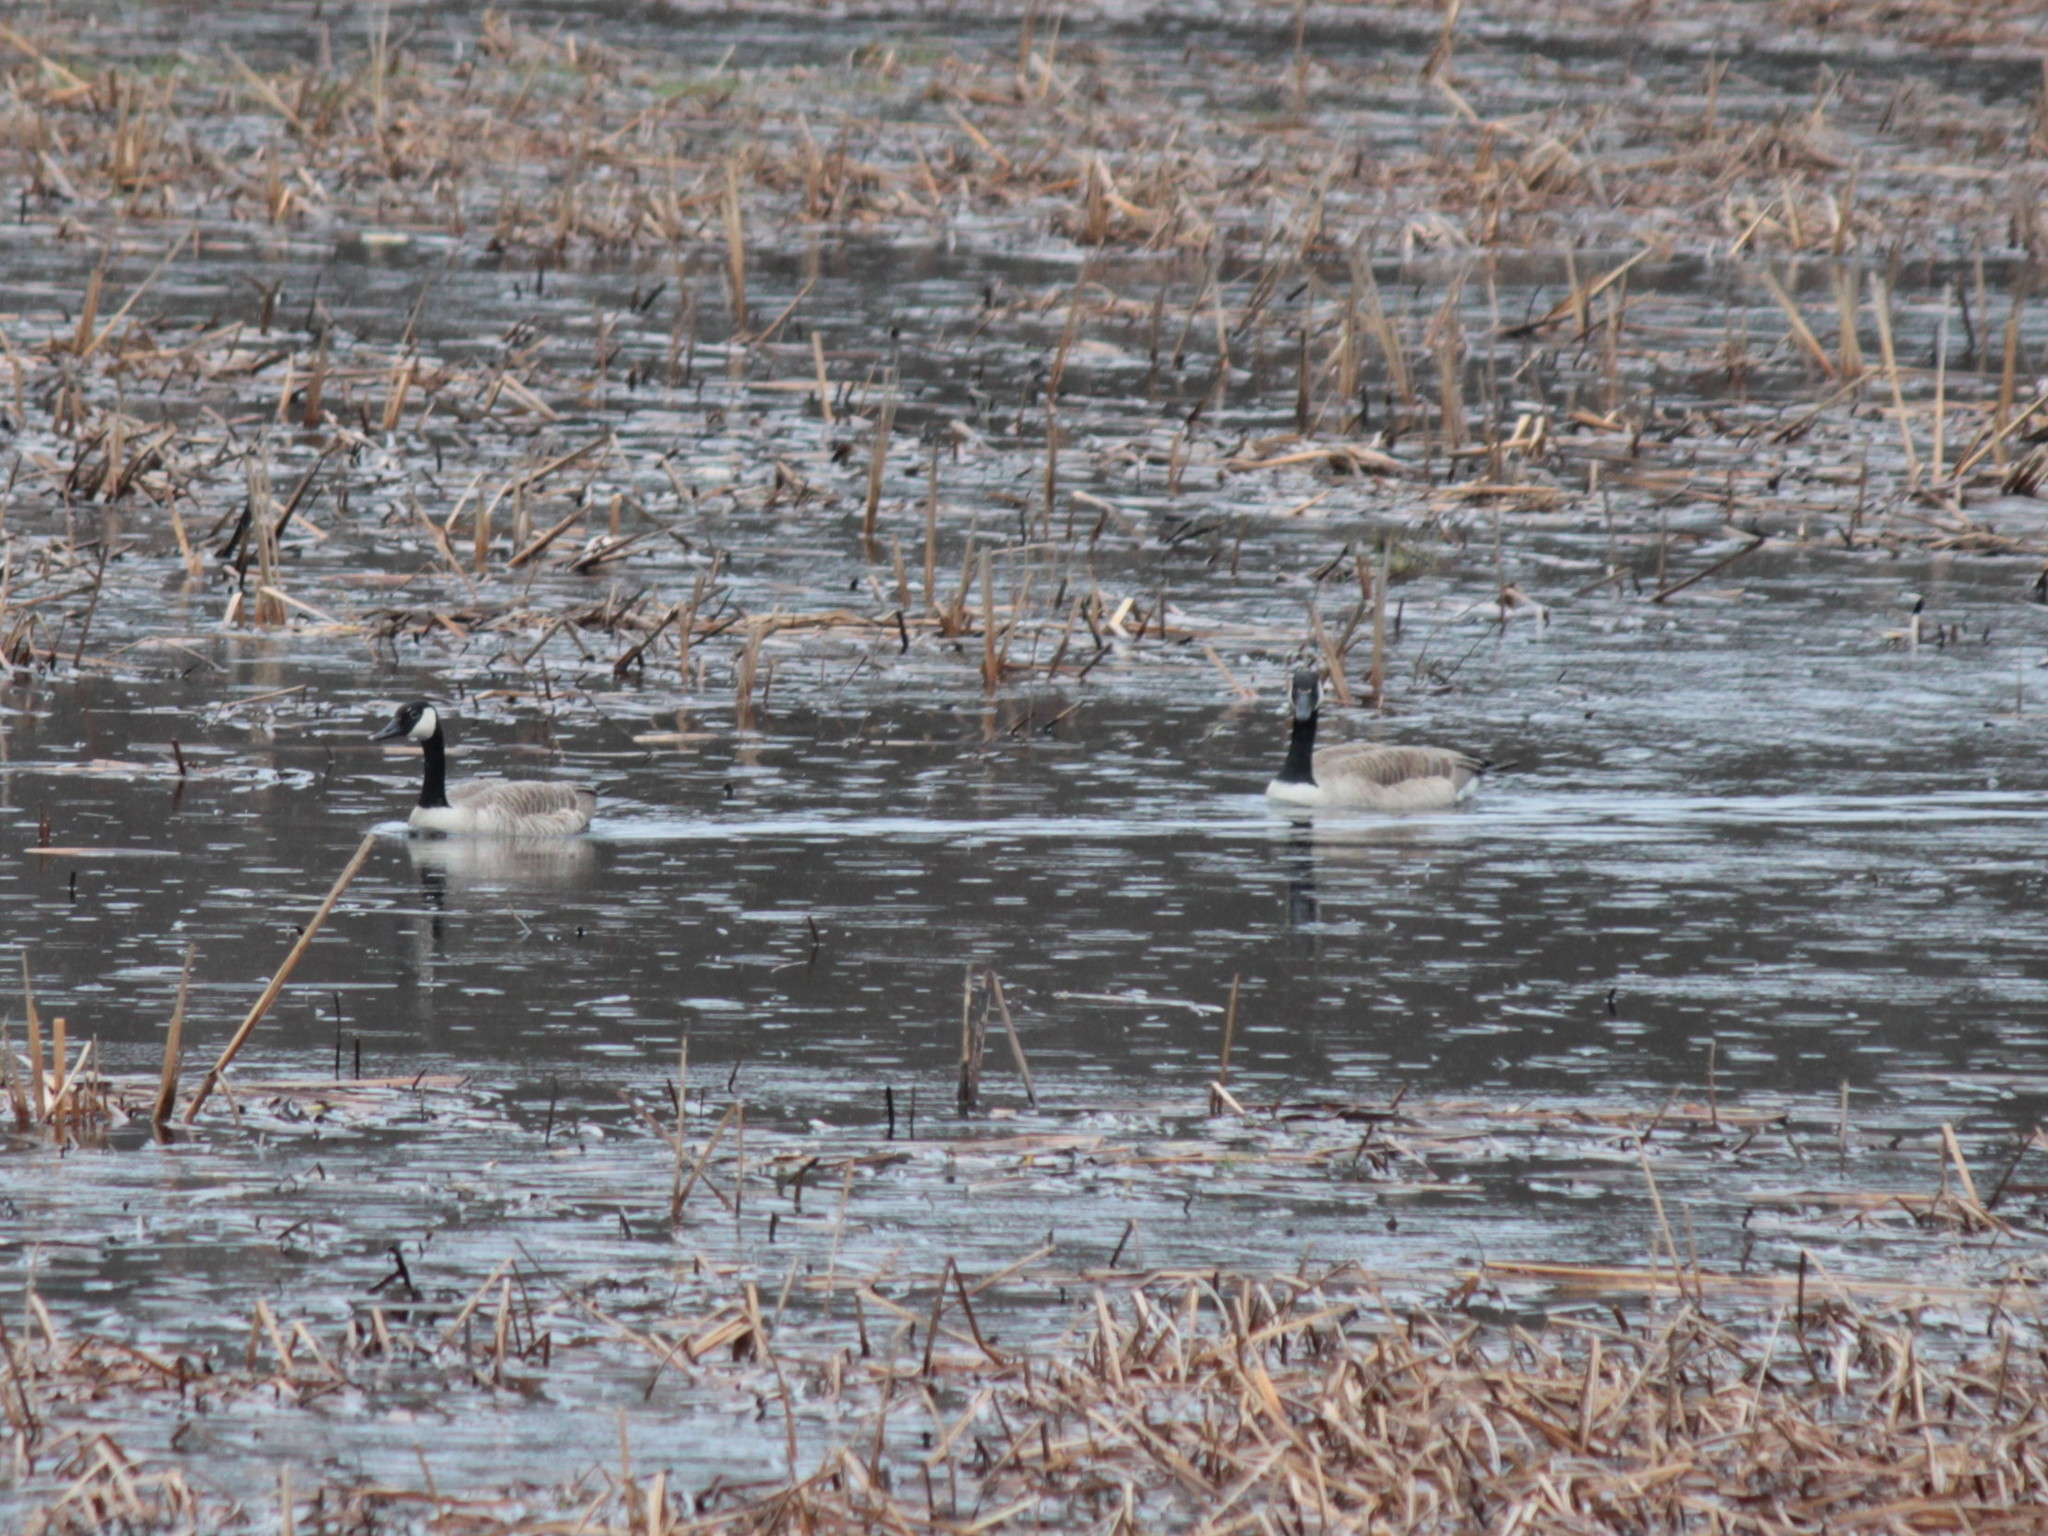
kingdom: Animalia
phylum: Chordata
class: Aves
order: Anseriformes
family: Anatidae
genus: Branta
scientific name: Branta canadensis
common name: Canada goose
